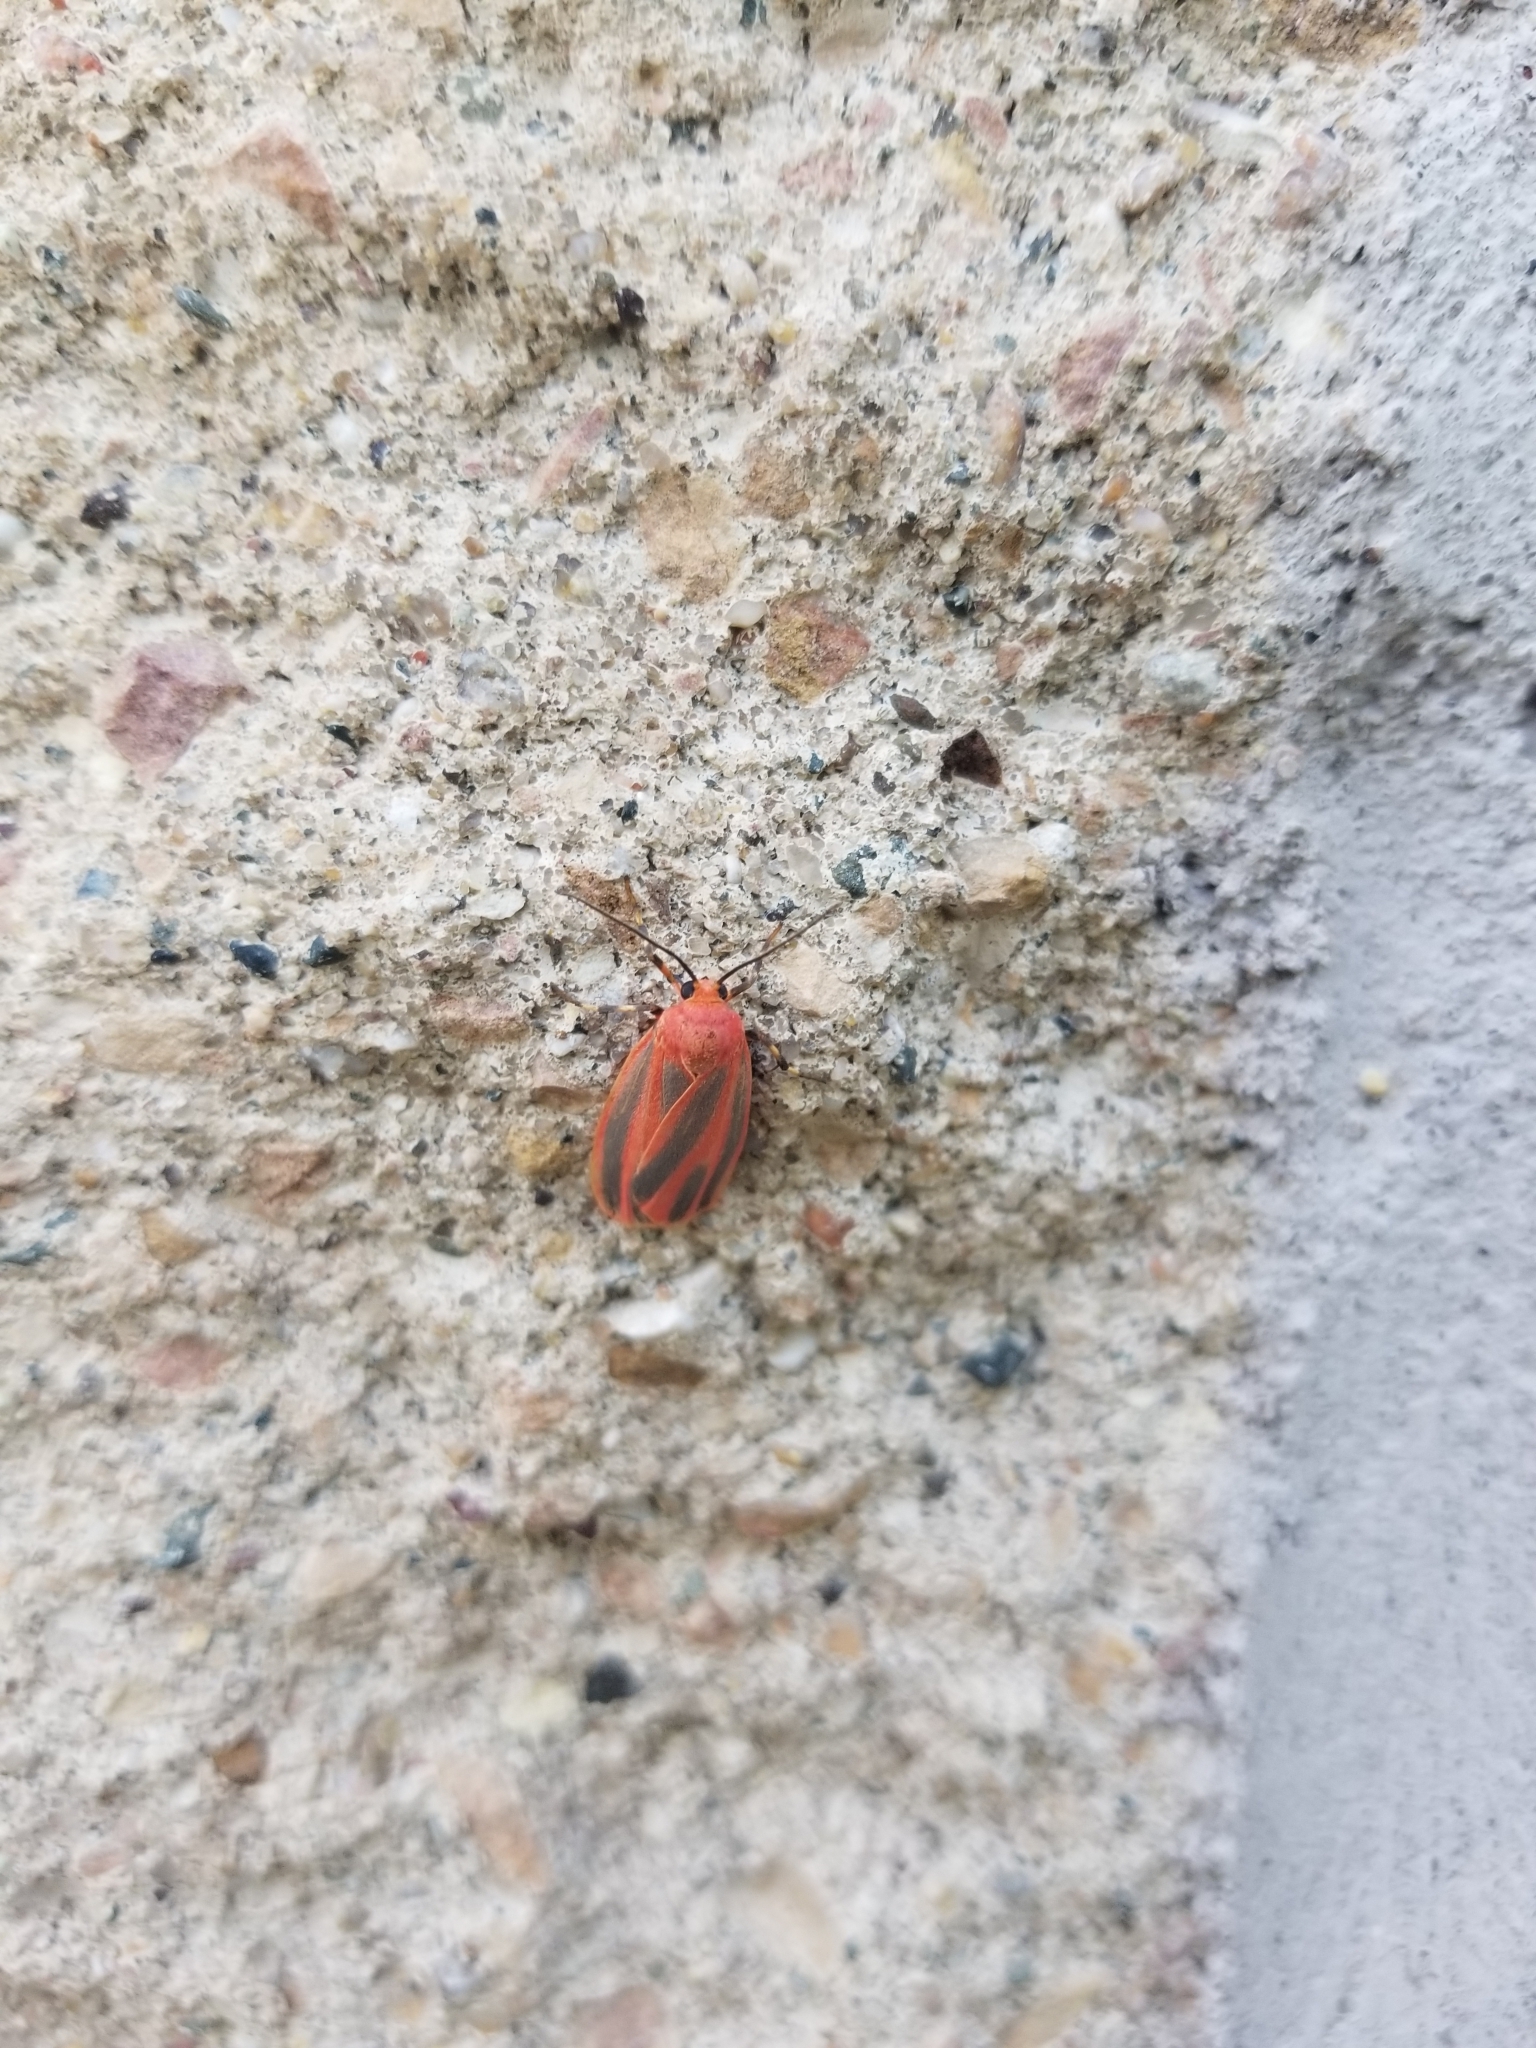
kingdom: Animalia
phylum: Arthropoda
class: Insecta
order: Lepidoptera
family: Erebidae
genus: Hypoprepia
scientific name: Hypoprepia miniata
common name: Scarlet-winged lichen moth
